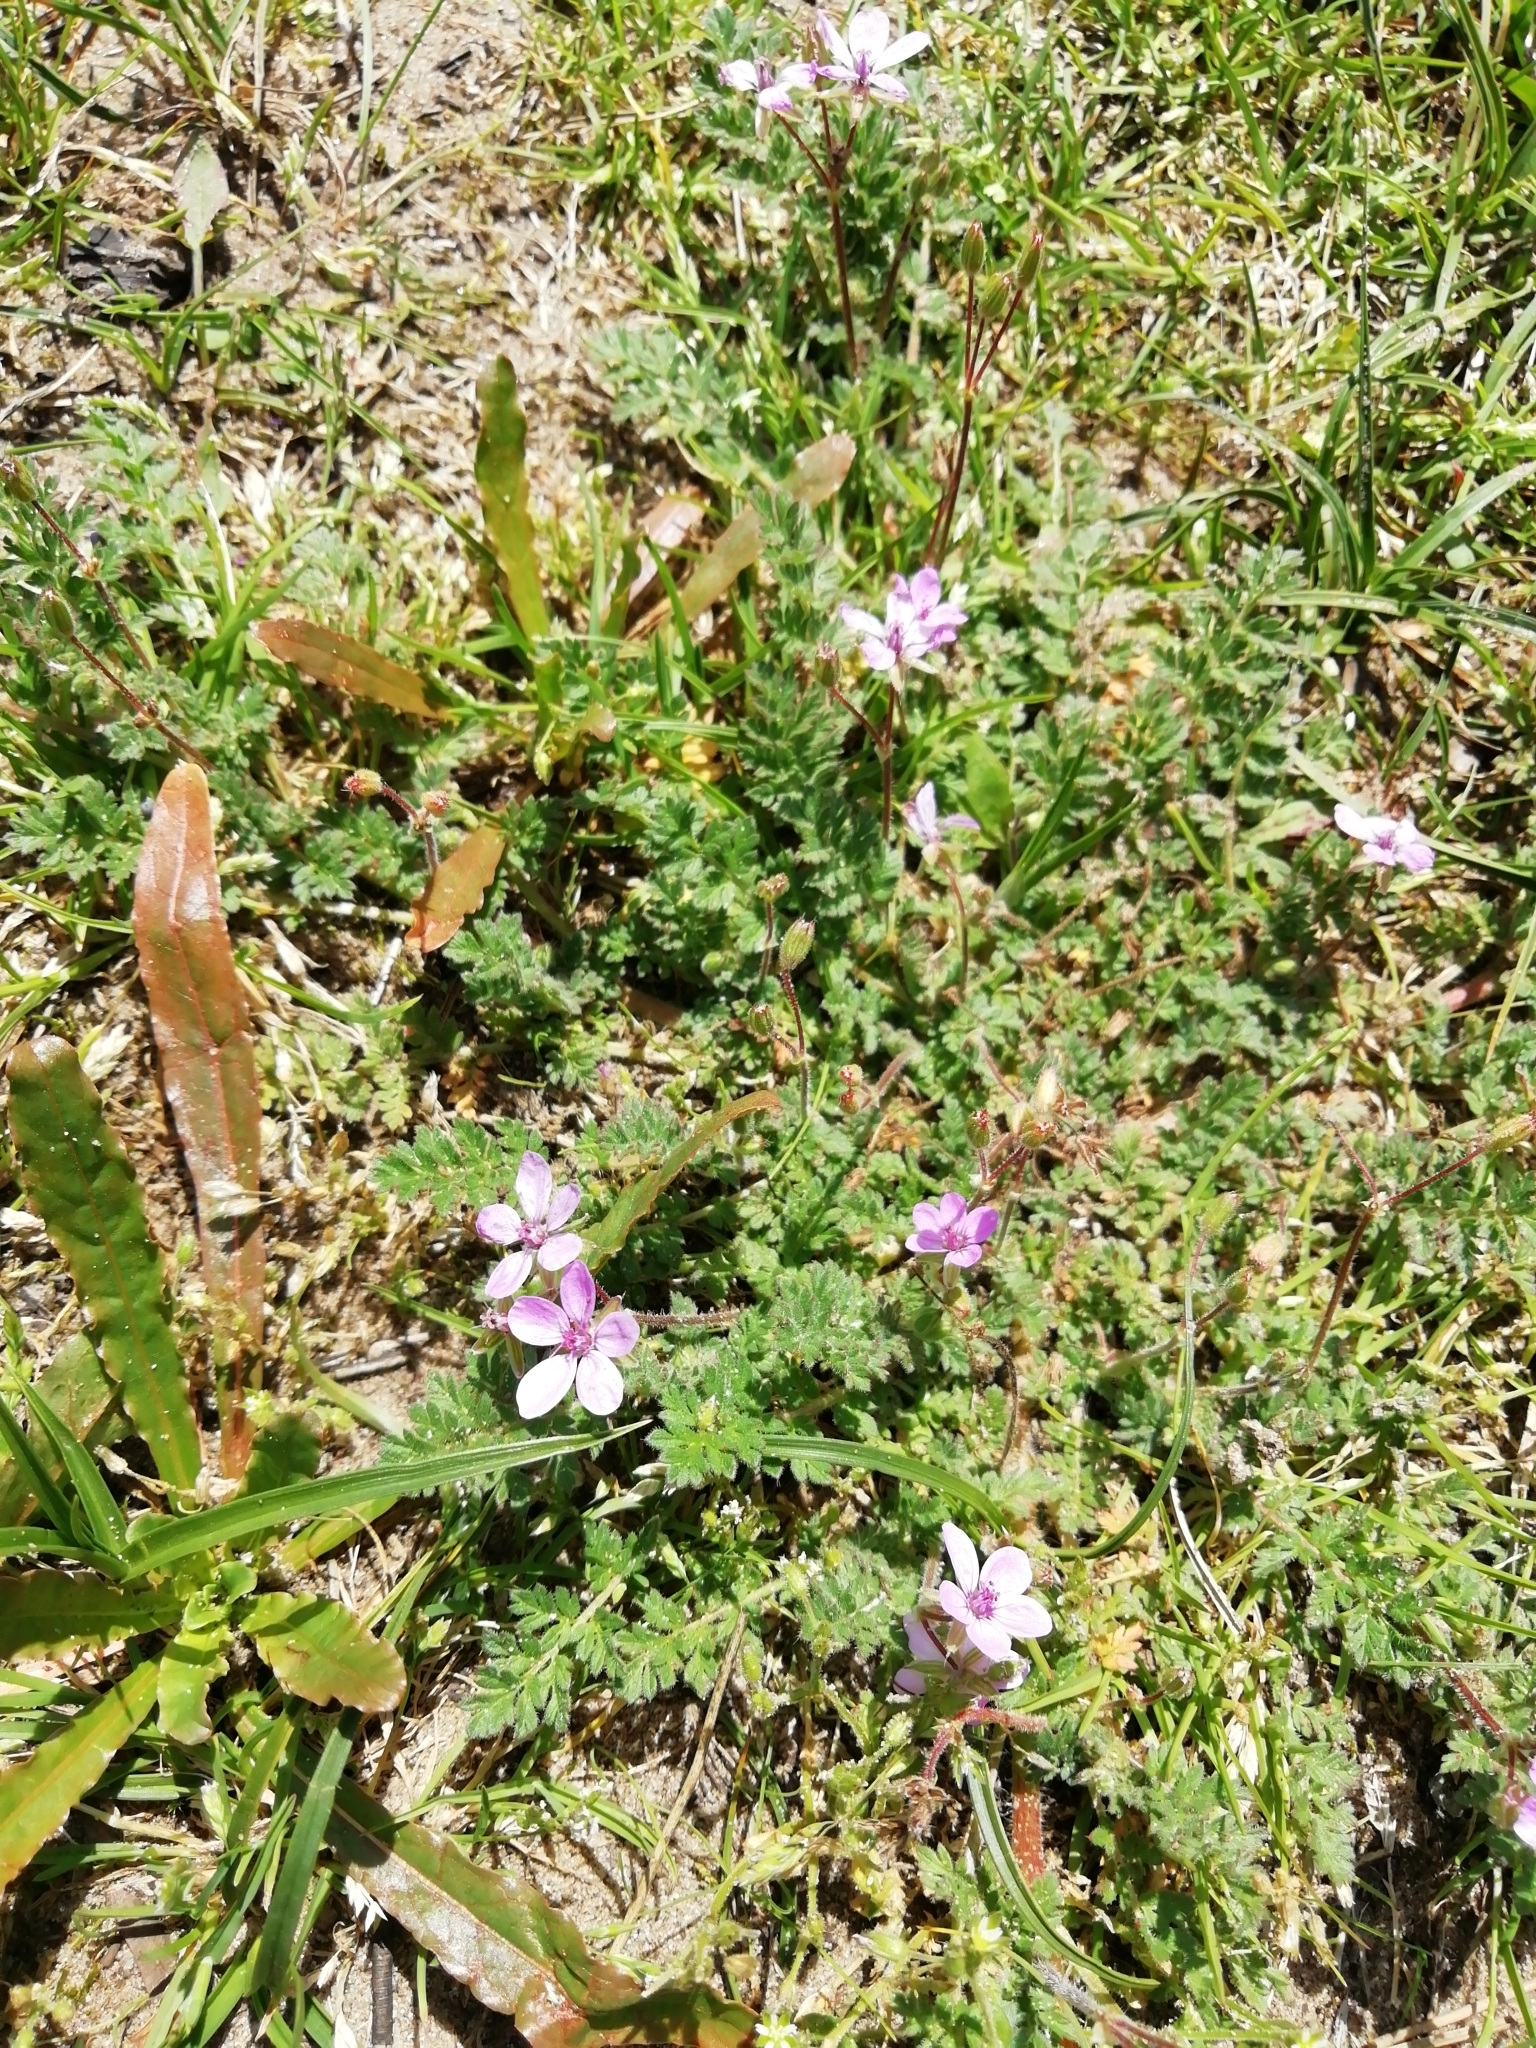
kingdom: Plantae
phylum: Tracheophyta
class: Magnoliopsida
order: Geraniales
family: Geraniaceae
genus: Erodium
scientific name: Erodium cicutarium
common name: Common stork's-bill
